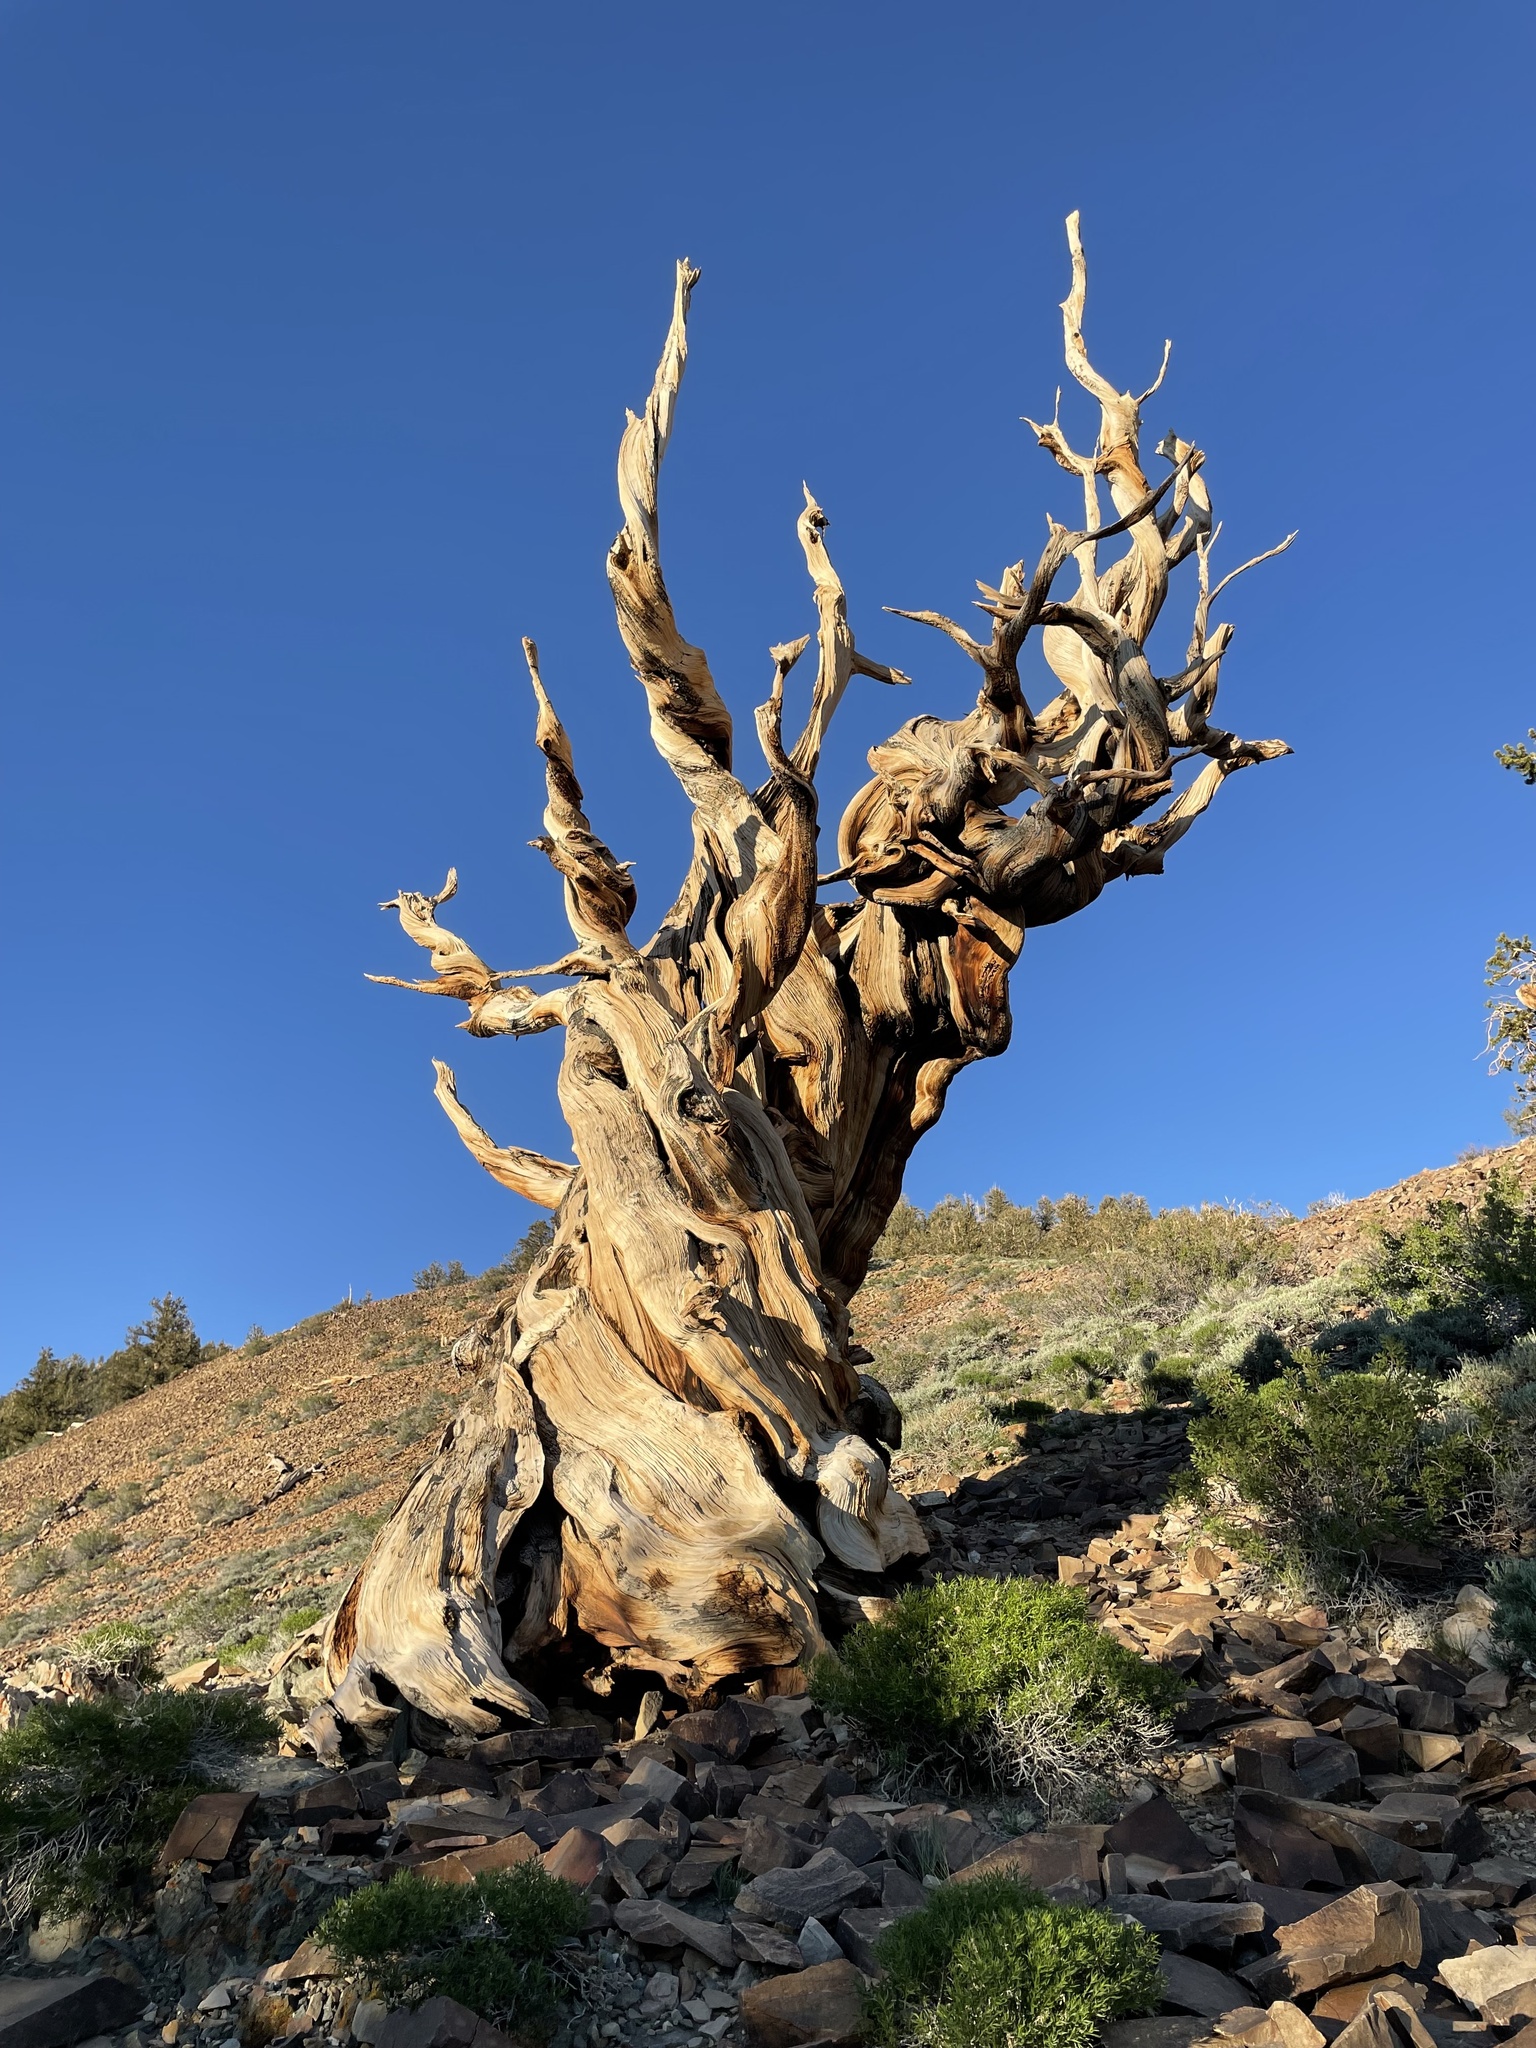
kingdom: Plantae
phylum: Tracheophyta
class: Pinopsida
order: Pinales
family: Pinaceae
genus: Pinus
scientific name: Pinus longaeva
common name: Intermountain bristlecone pine
